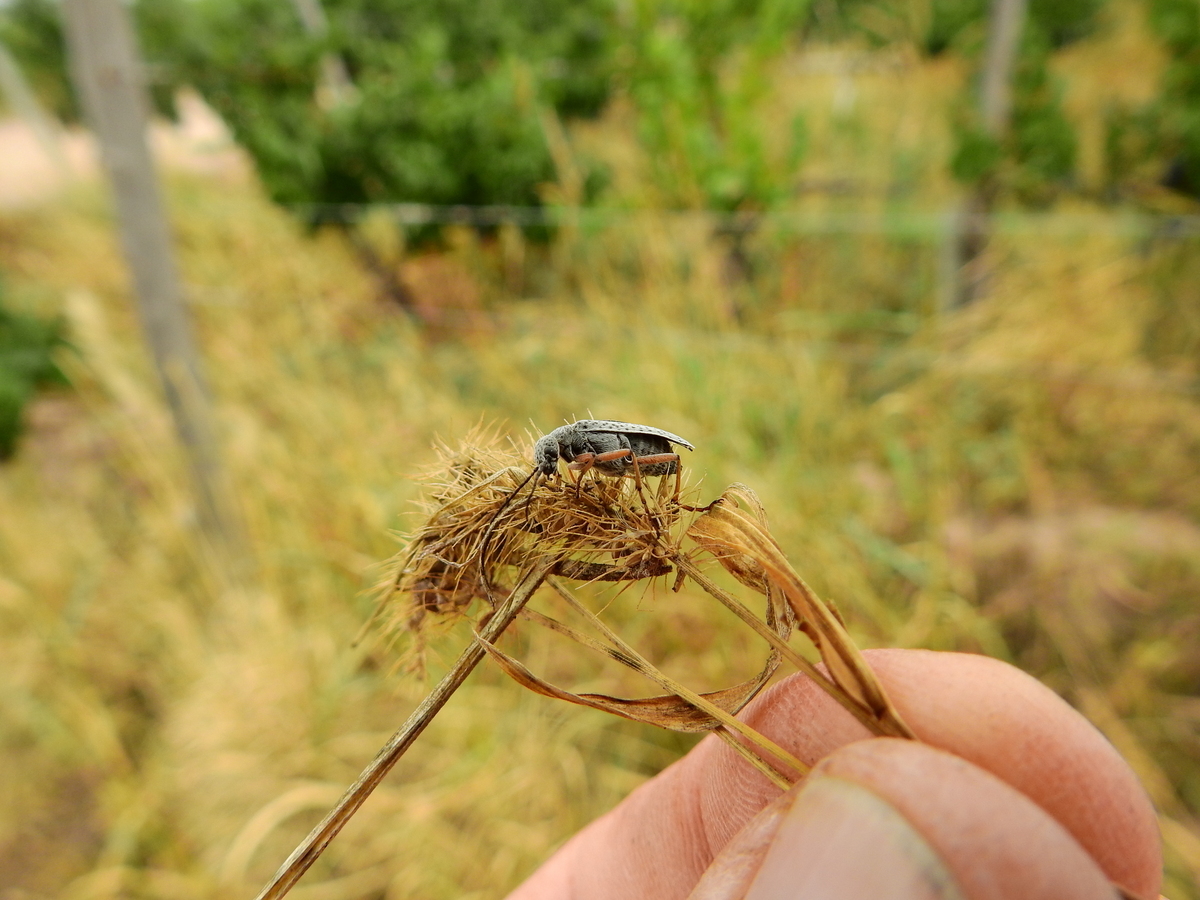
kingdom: Animalia
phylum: Arthropoda
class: Insecta
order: Coleoptera
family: Meloidae
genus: Epicauta
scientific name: Epicauta
